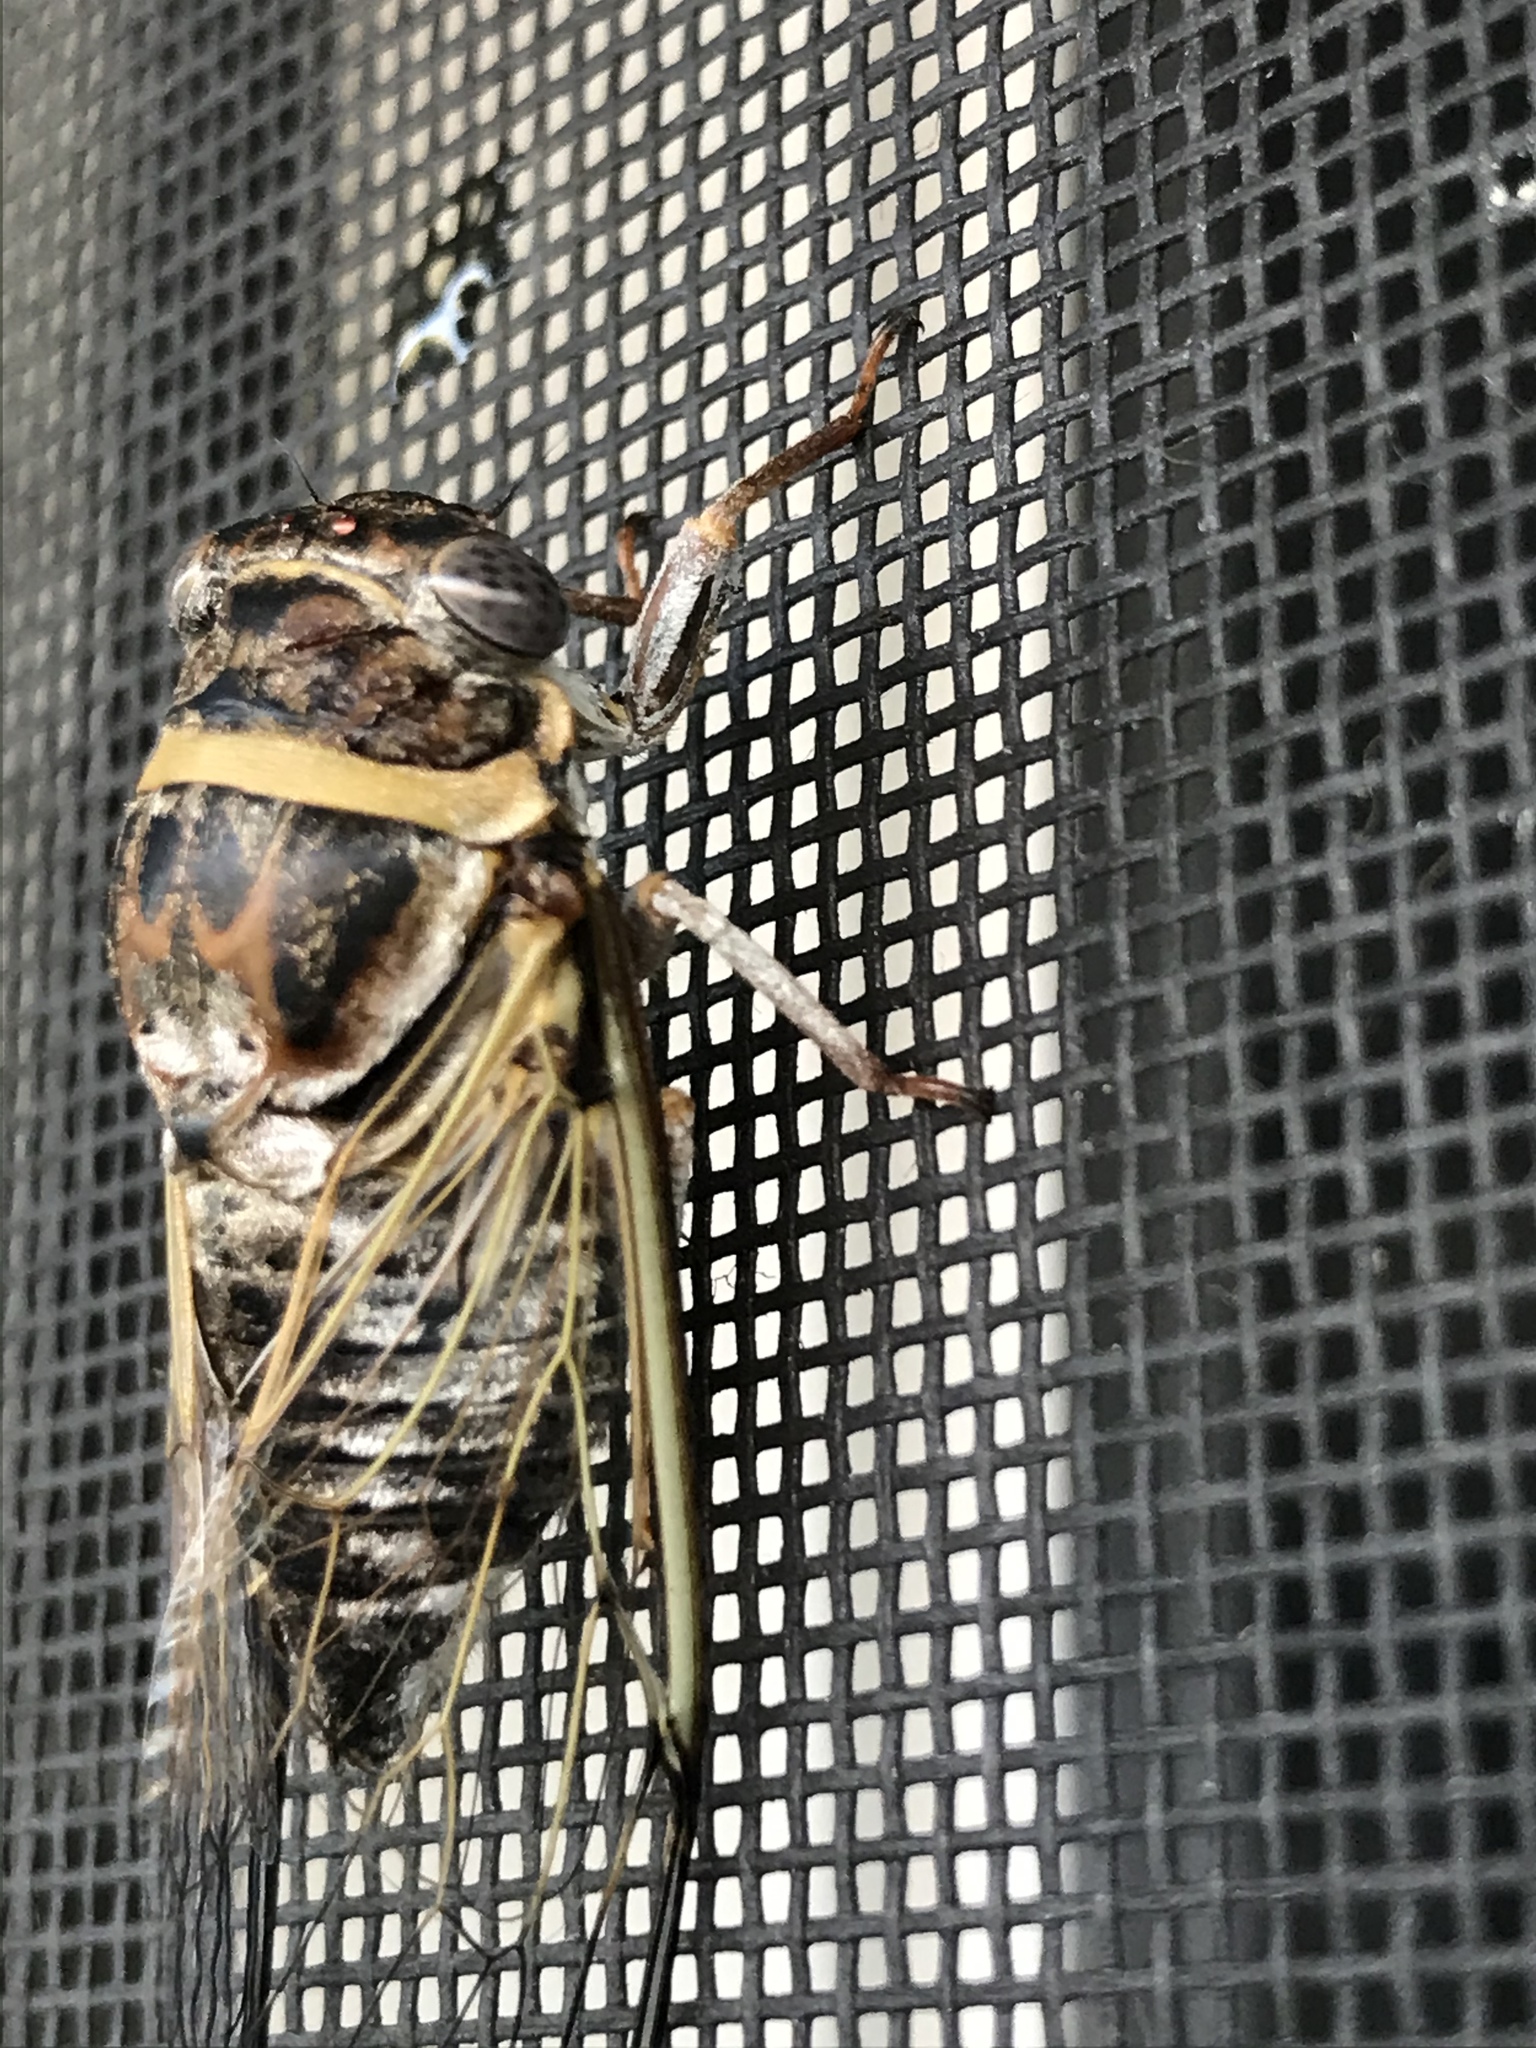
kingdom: Animalia
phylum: Arthropoda
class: Insecta
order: Hemiptera
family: Cicadidae
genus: Diceroprocta
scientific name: Diceroprocta viridifascia
